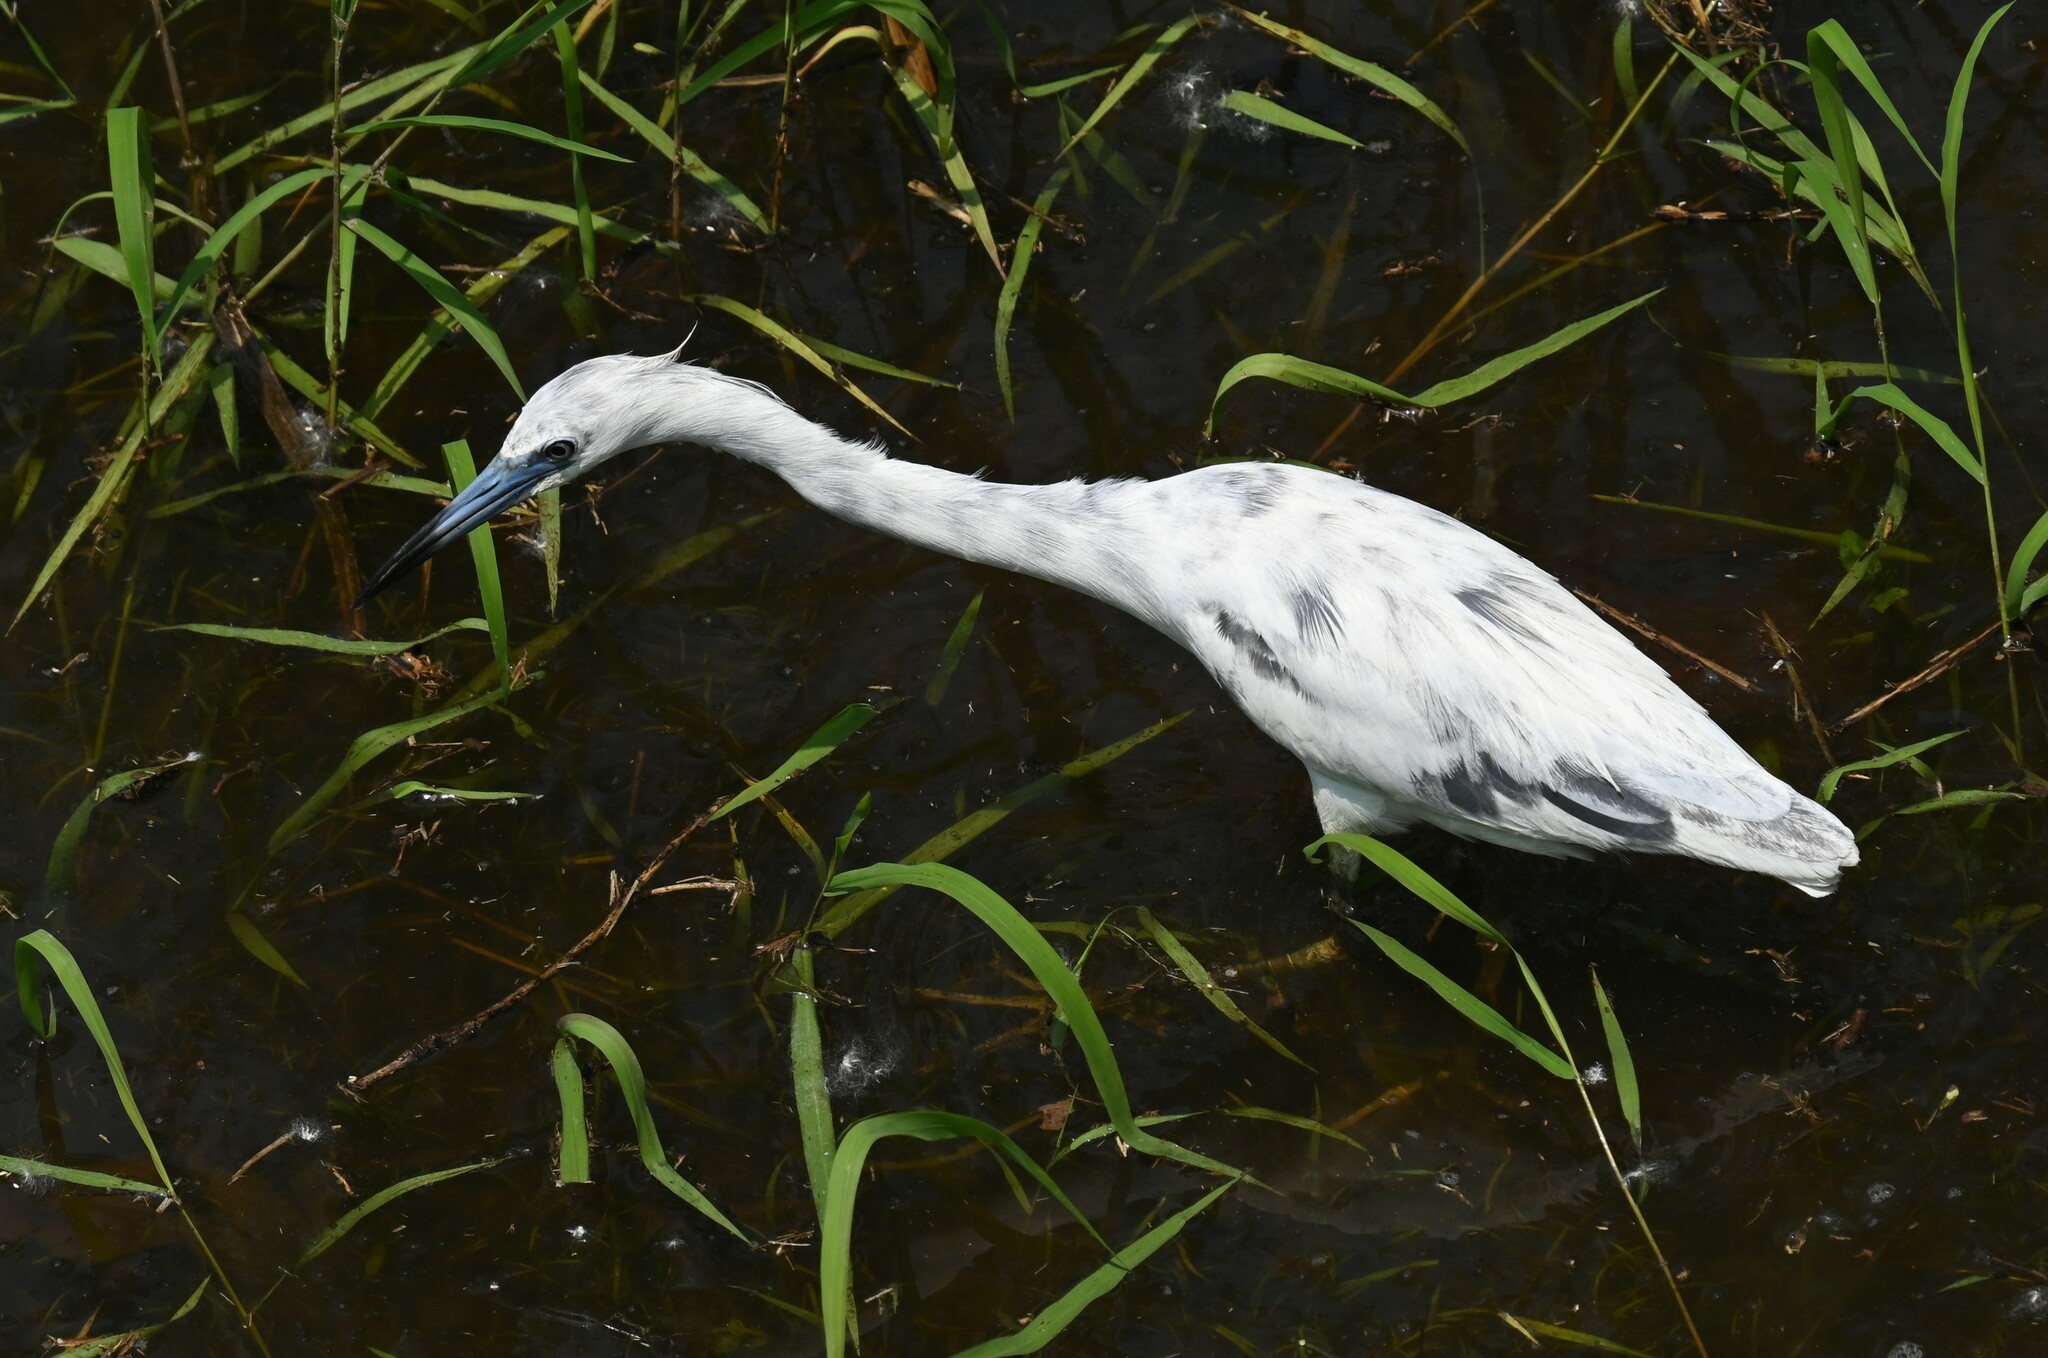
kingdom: Animalia
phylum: Chordata
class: Aves
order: Pelecaniformes
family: Ardeidae
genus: Egretta
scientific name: Egretta caerulea
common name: Little blue heron
